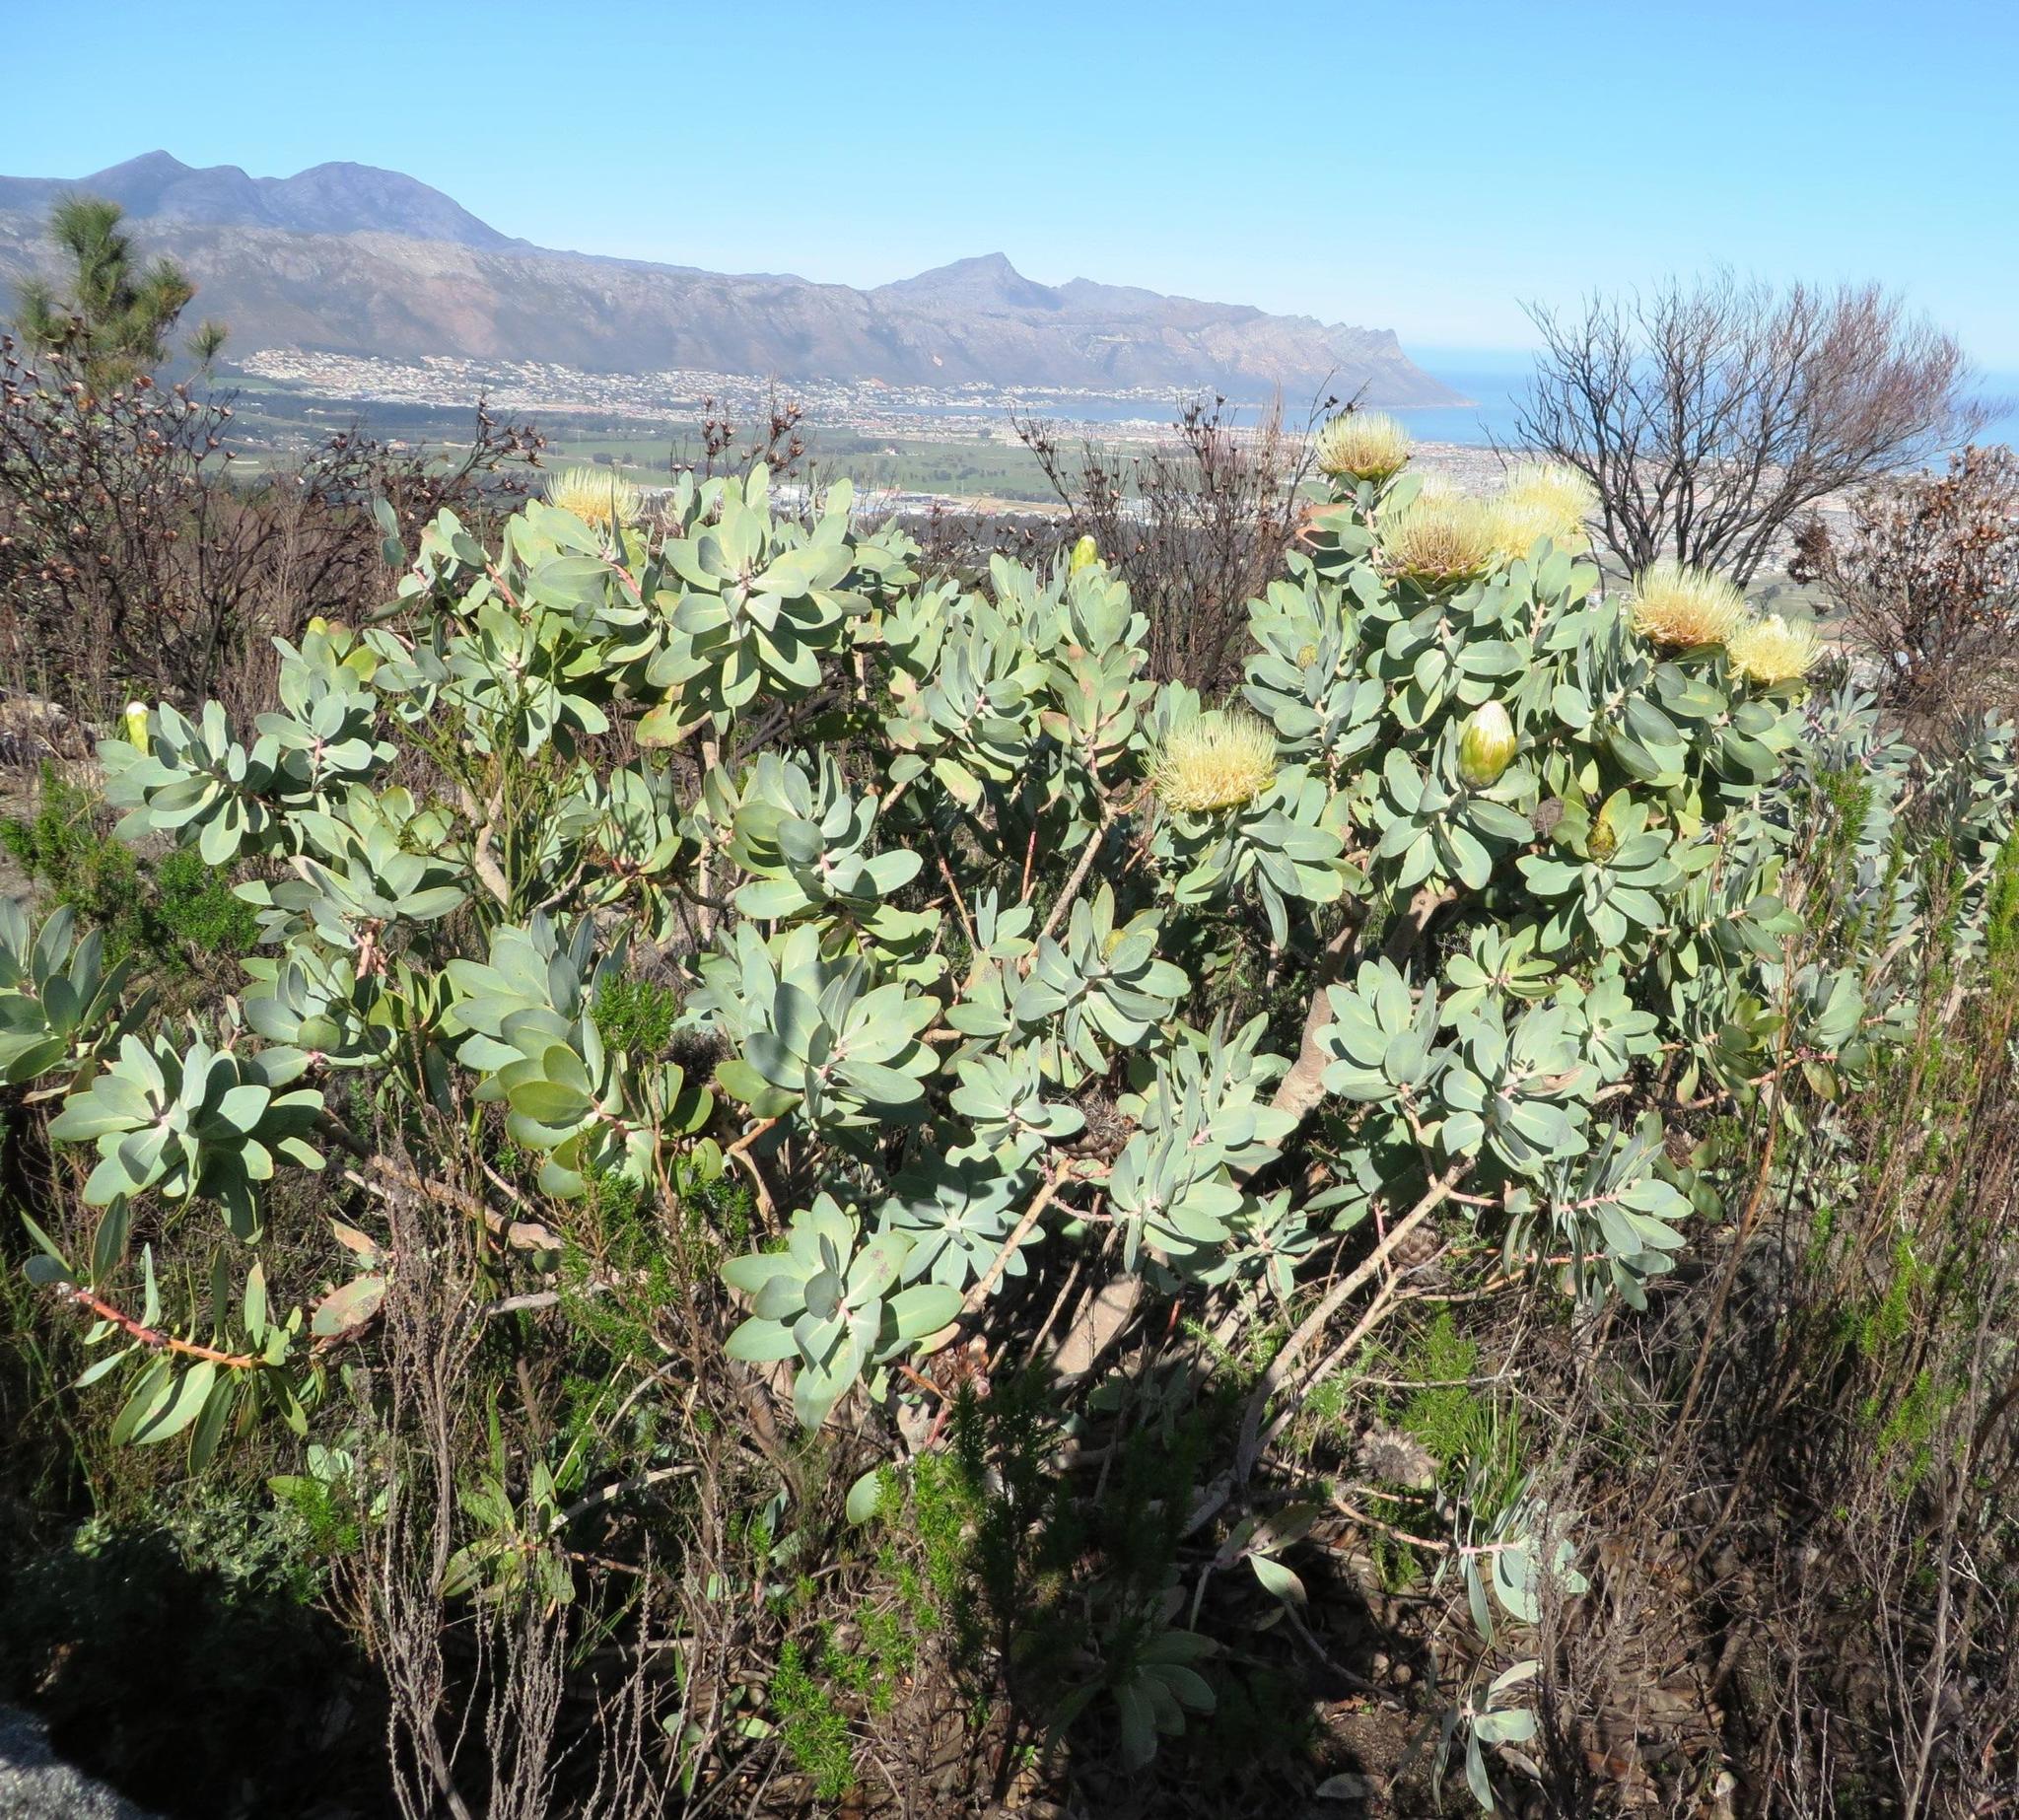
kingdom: Plantae
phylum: Tracheophyta
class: Magnoliopsida
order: Proteales
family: Proteaceae
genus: Protea
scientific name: Protea nitida
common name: Tree protea
